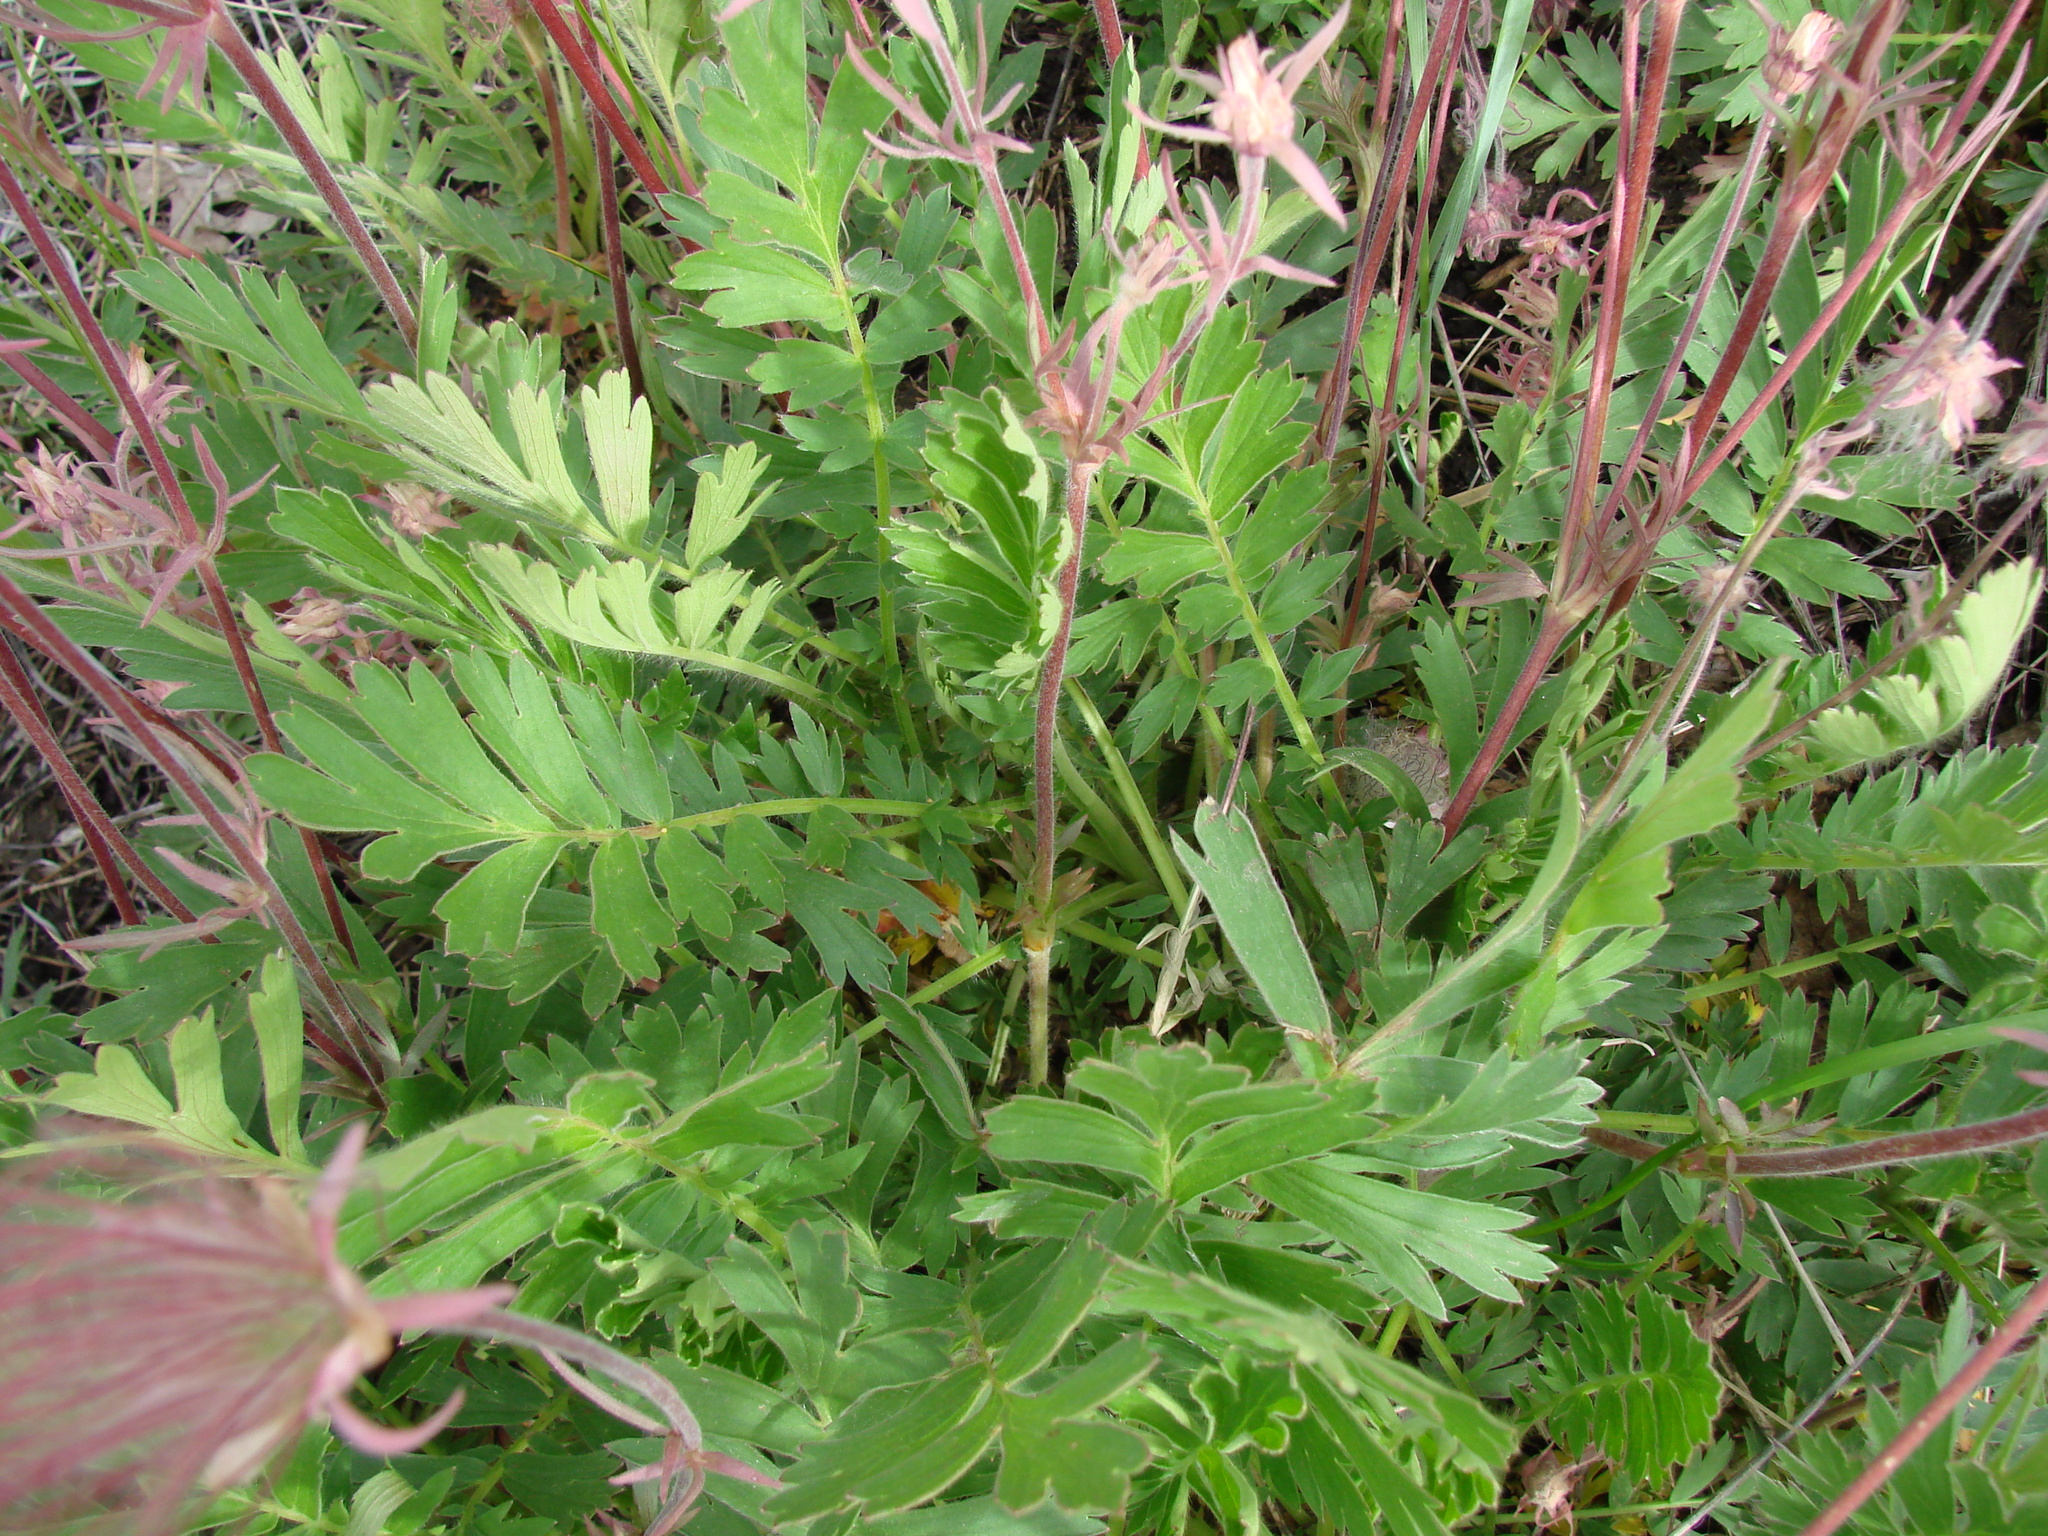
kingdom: Plantae
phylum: Tracheophyta
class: Magnoliopsida
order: Rosales
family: Rosaceae
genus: Geum
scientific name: Geum triflorum
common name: Old man's whiskers
